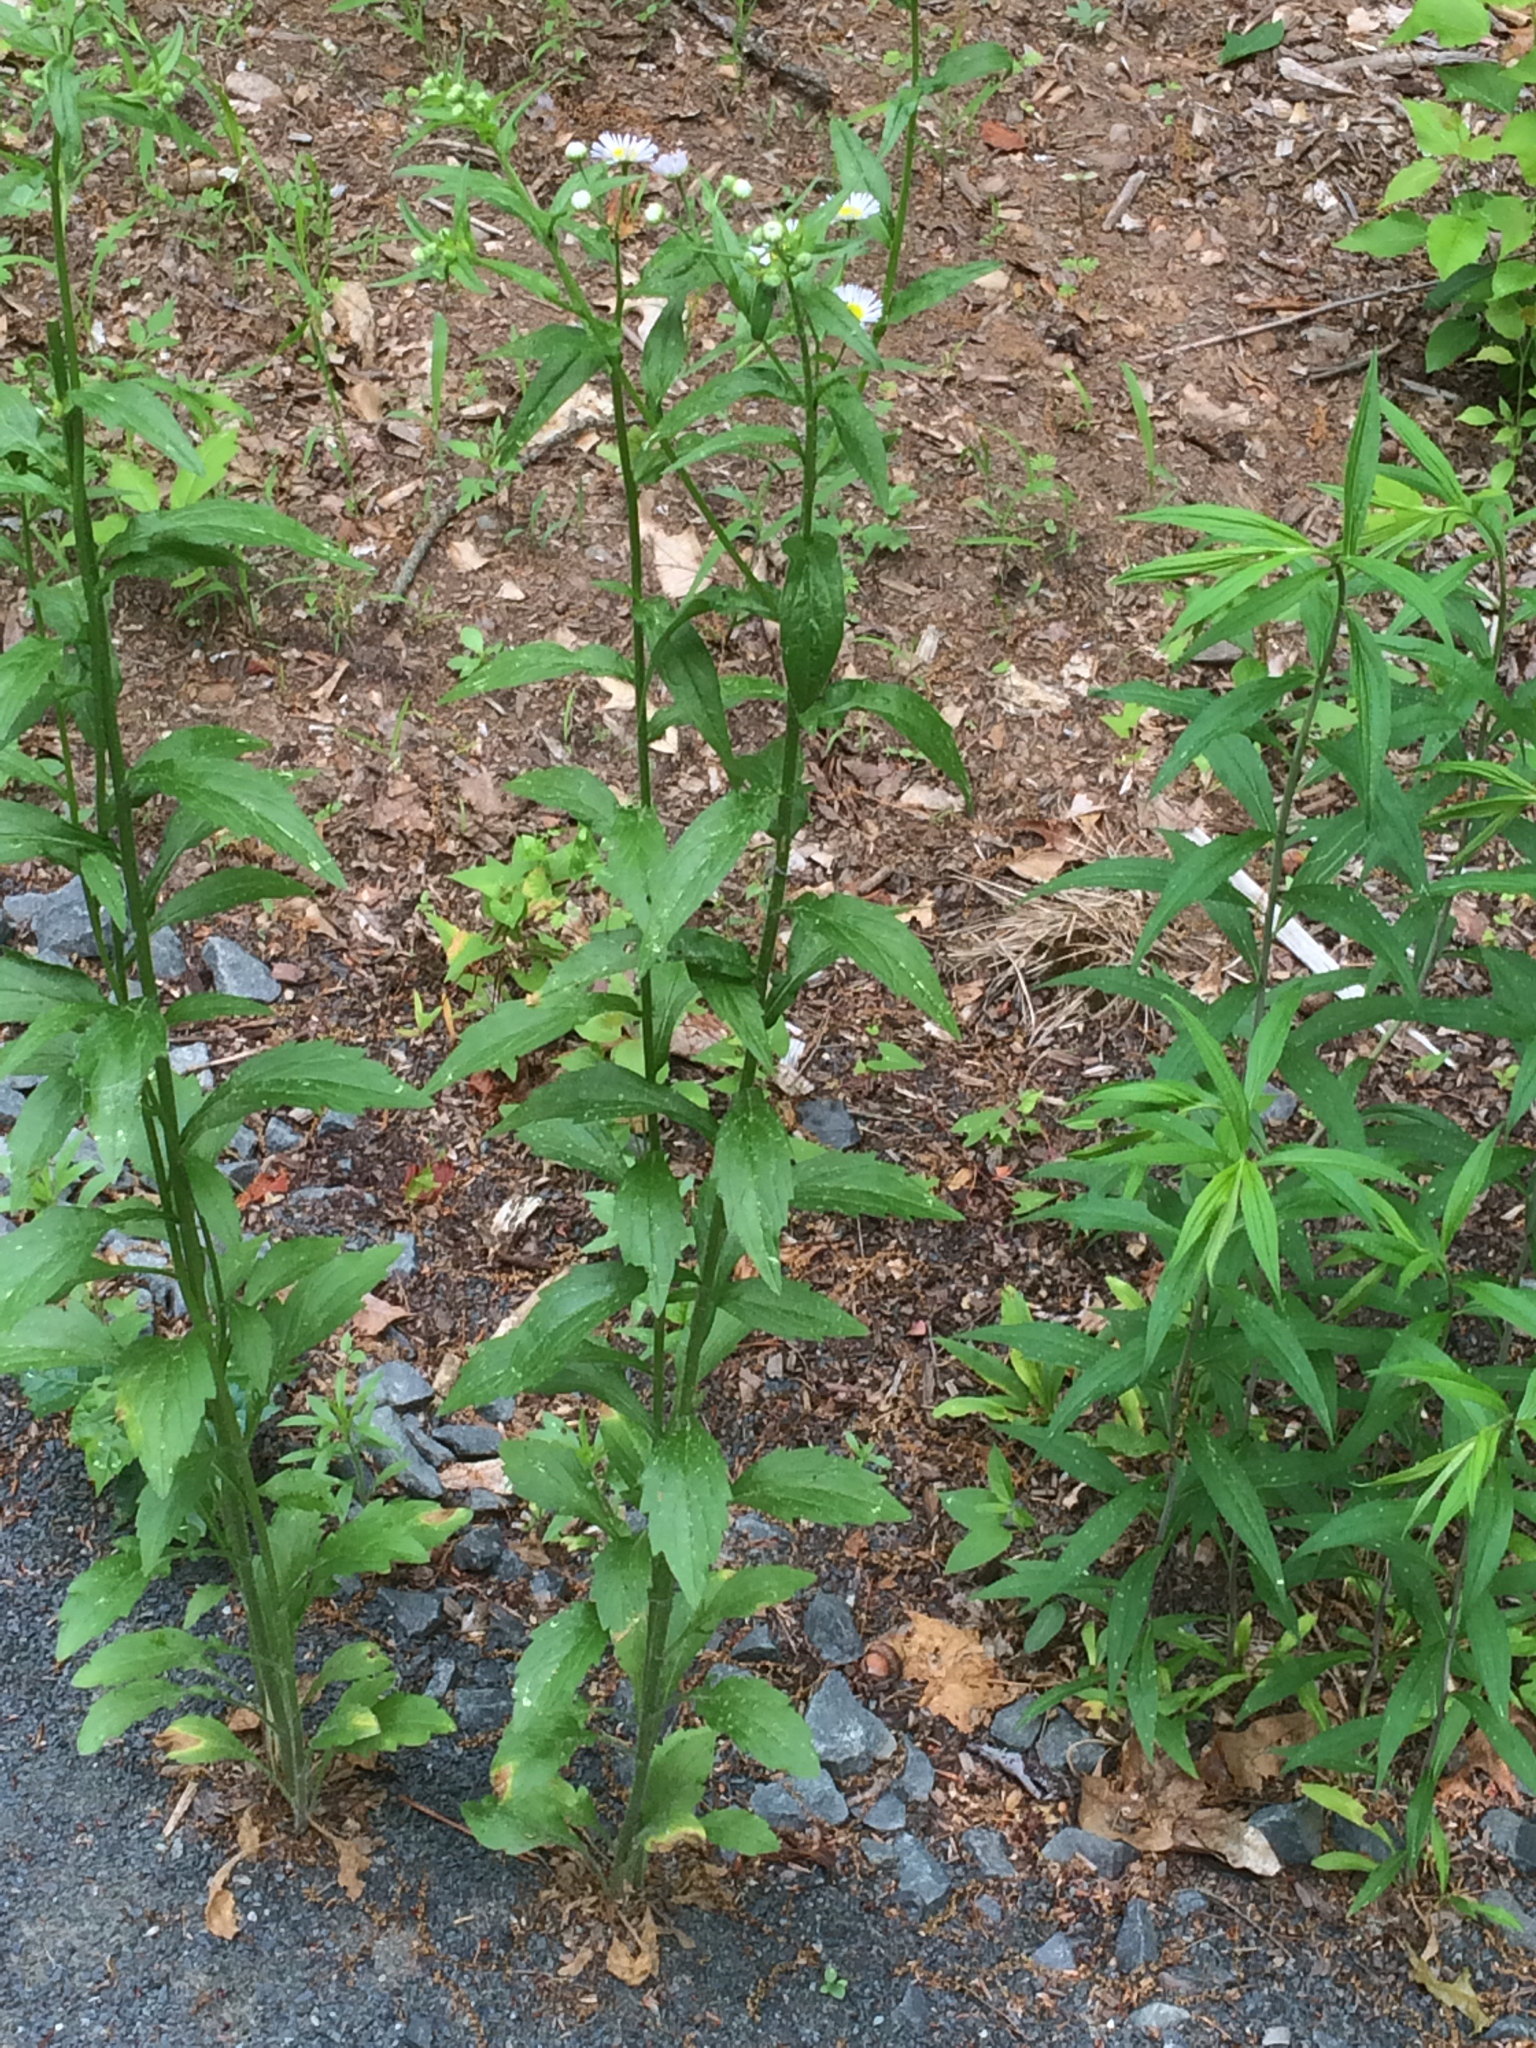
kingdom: Plantae
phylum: Tracheophyta
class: Magnoliopsida
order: Asterales
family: Asteraceae
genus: Erigeron
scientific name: Erigeron philadelphicus
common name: Robin's-plantain
